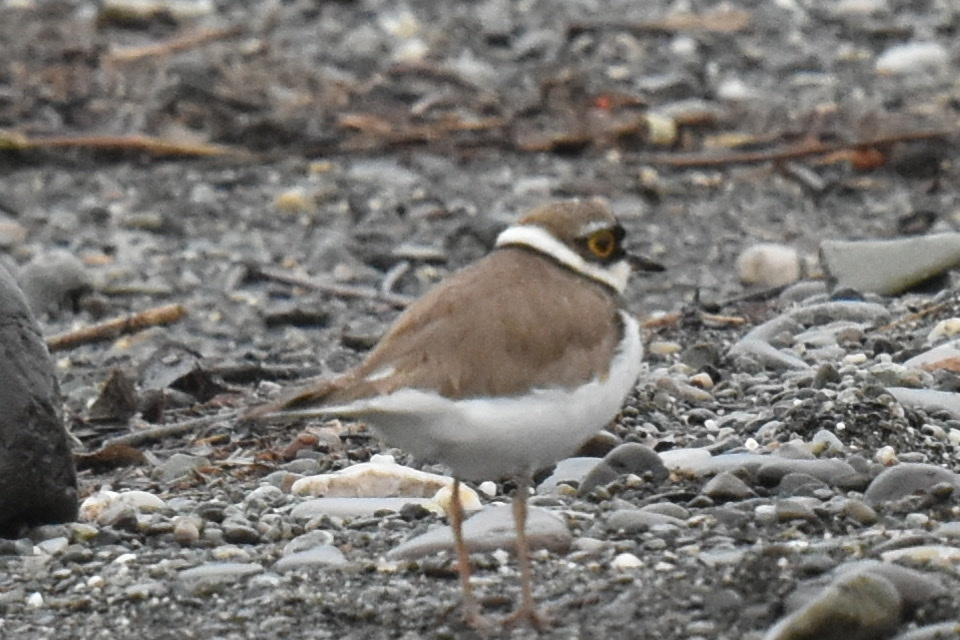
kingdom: Animalia
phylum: Chordata
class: Aves
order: Charadriiformes
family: Charadriidae
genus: Charadrius
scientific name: Charadrius dubius
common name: Little ringed plover
